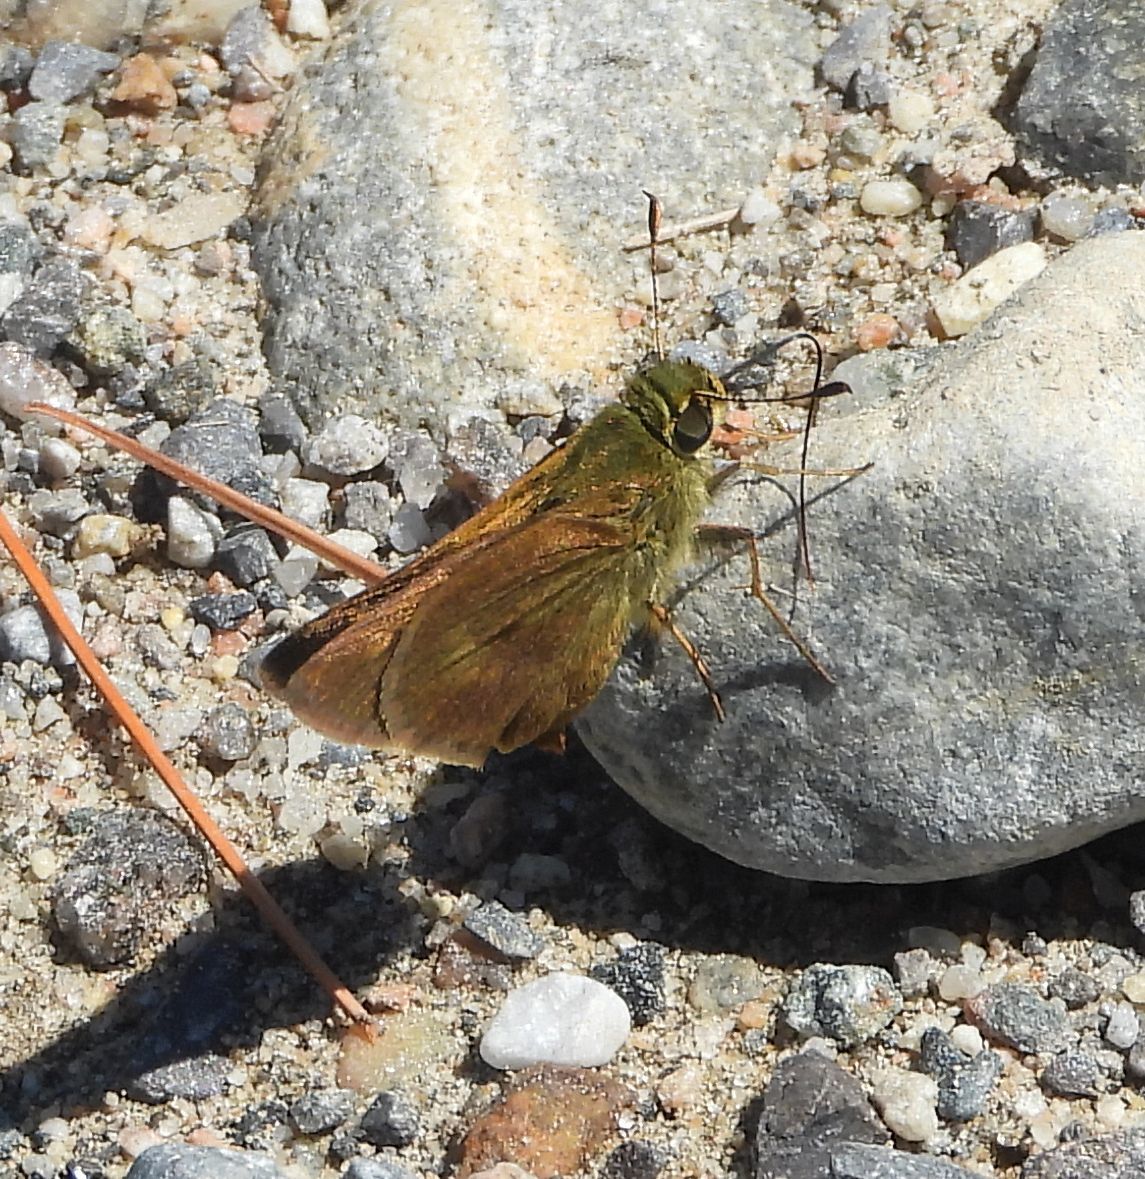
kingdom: Animalia
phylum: Arthropoda
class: Insecta
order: Lepidoptera
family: Hesperiidae
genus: Polites
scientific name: Polites egeremet
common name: Northern broken-dash
